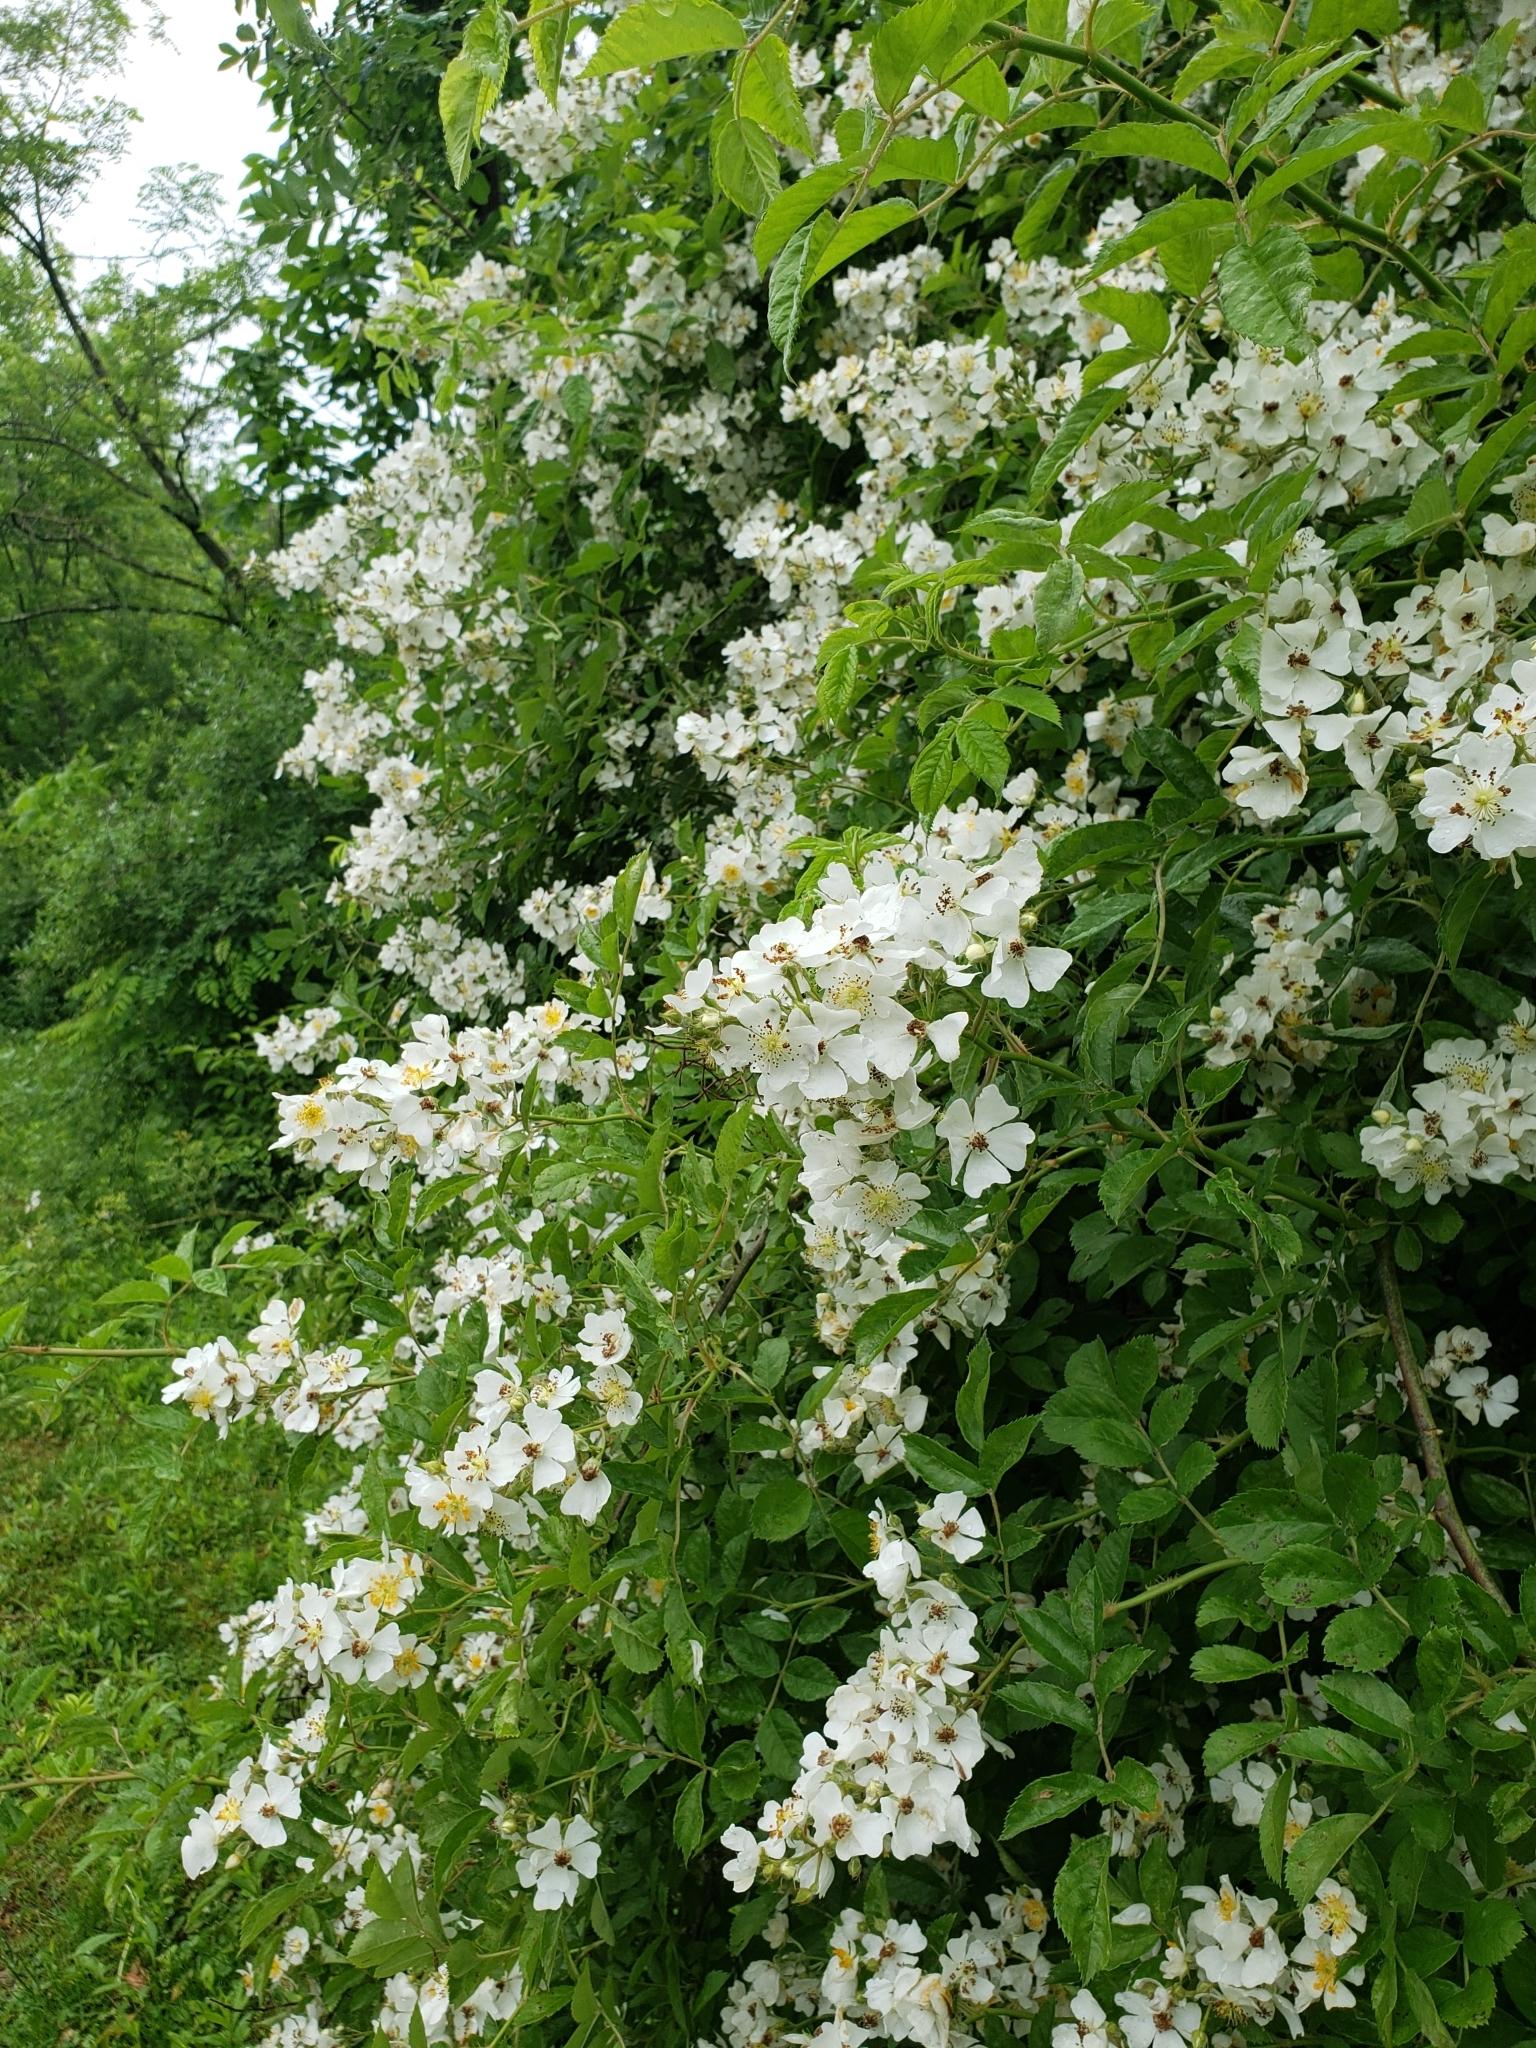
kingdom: Plantae
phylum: Tracheophyta
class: Magnoliopsida
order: Rosales
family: Rosaceae
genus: Rosa
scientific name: Rosa multiflora
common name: Multiflora rose
